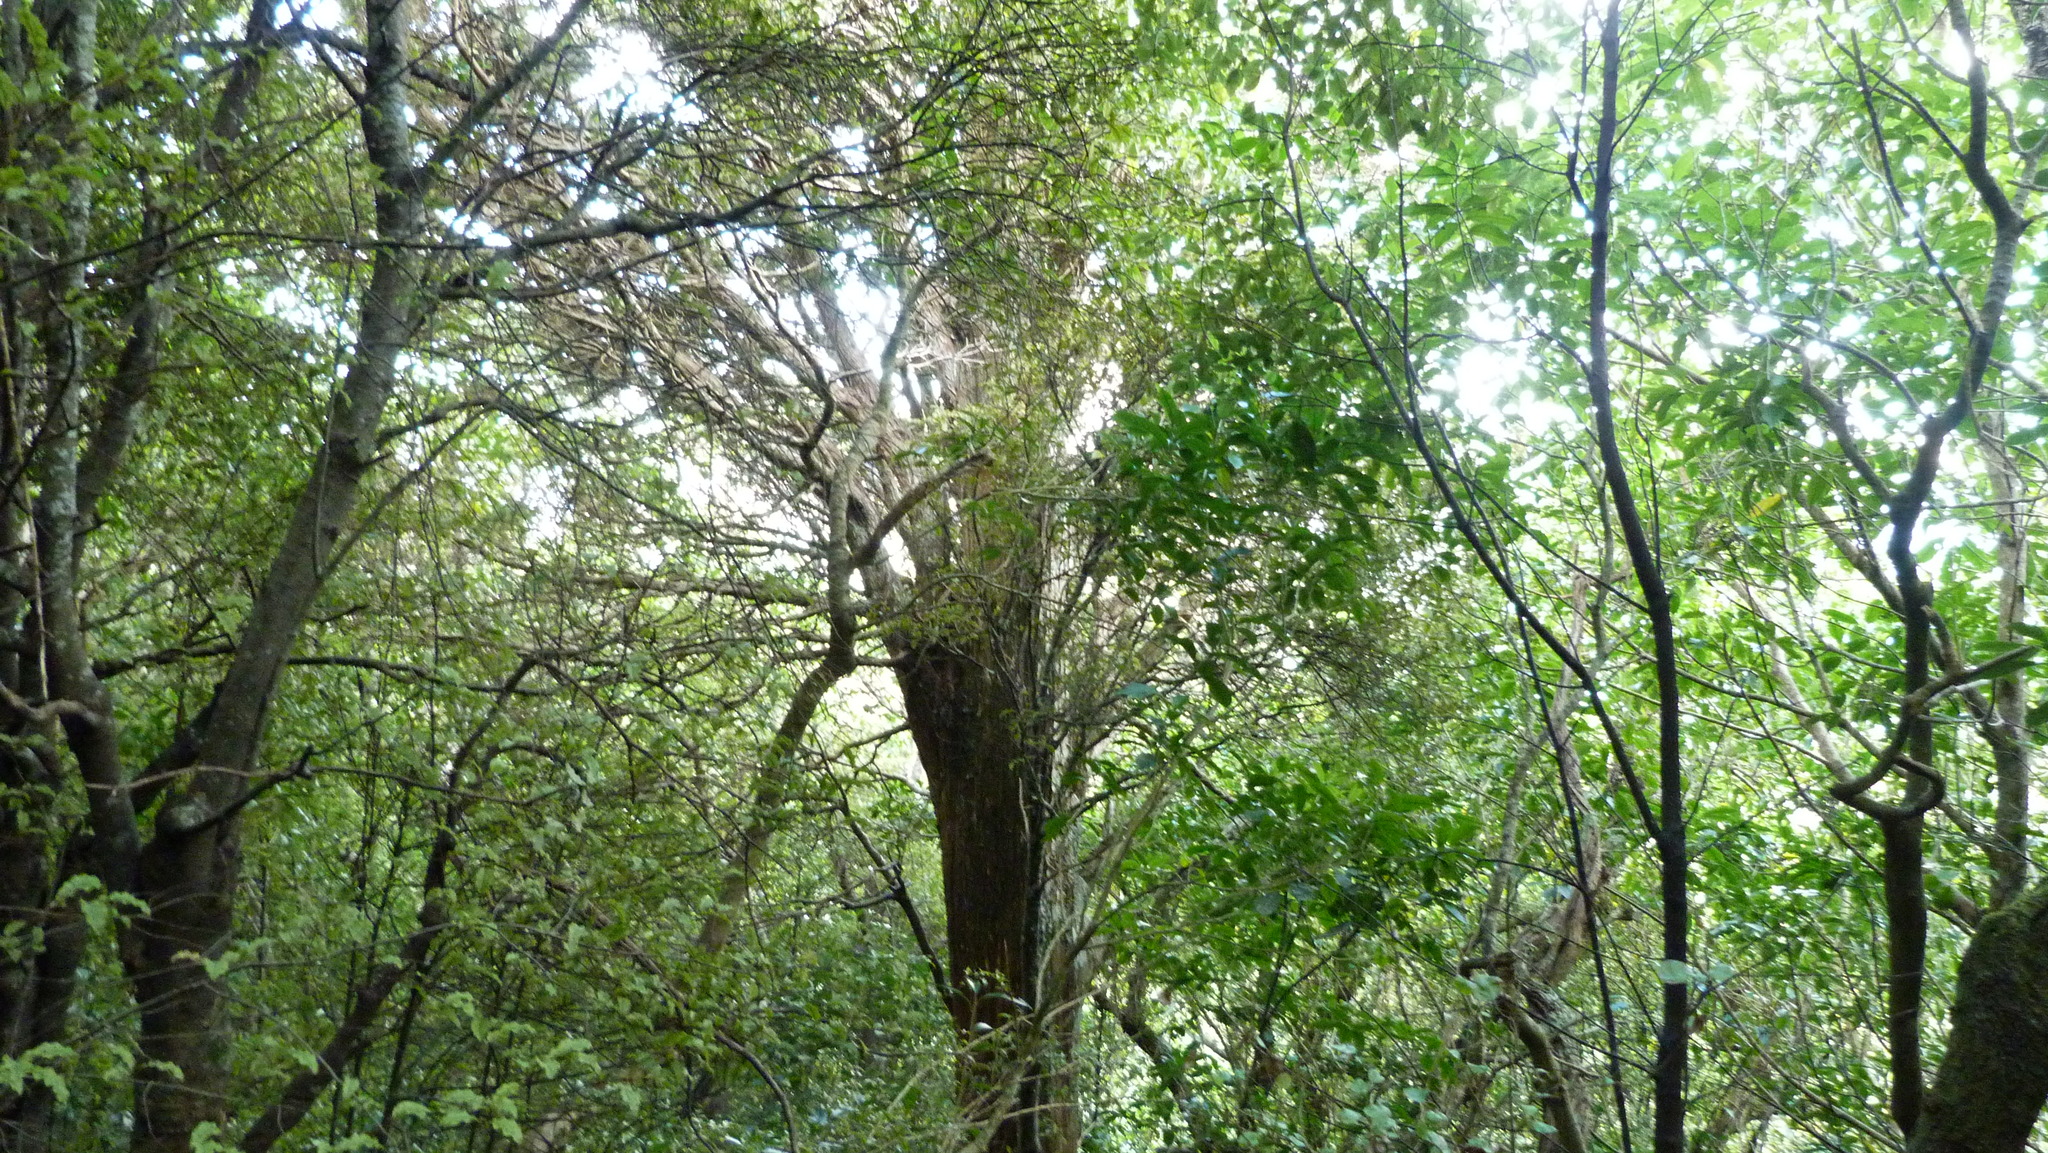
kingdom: Plantae
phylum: Tracheophyta
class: Pinopsida
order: Pinales
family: Podocarpaceae
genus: Podocarpus
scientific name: Podocarpus laetus
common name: Hall's totara
